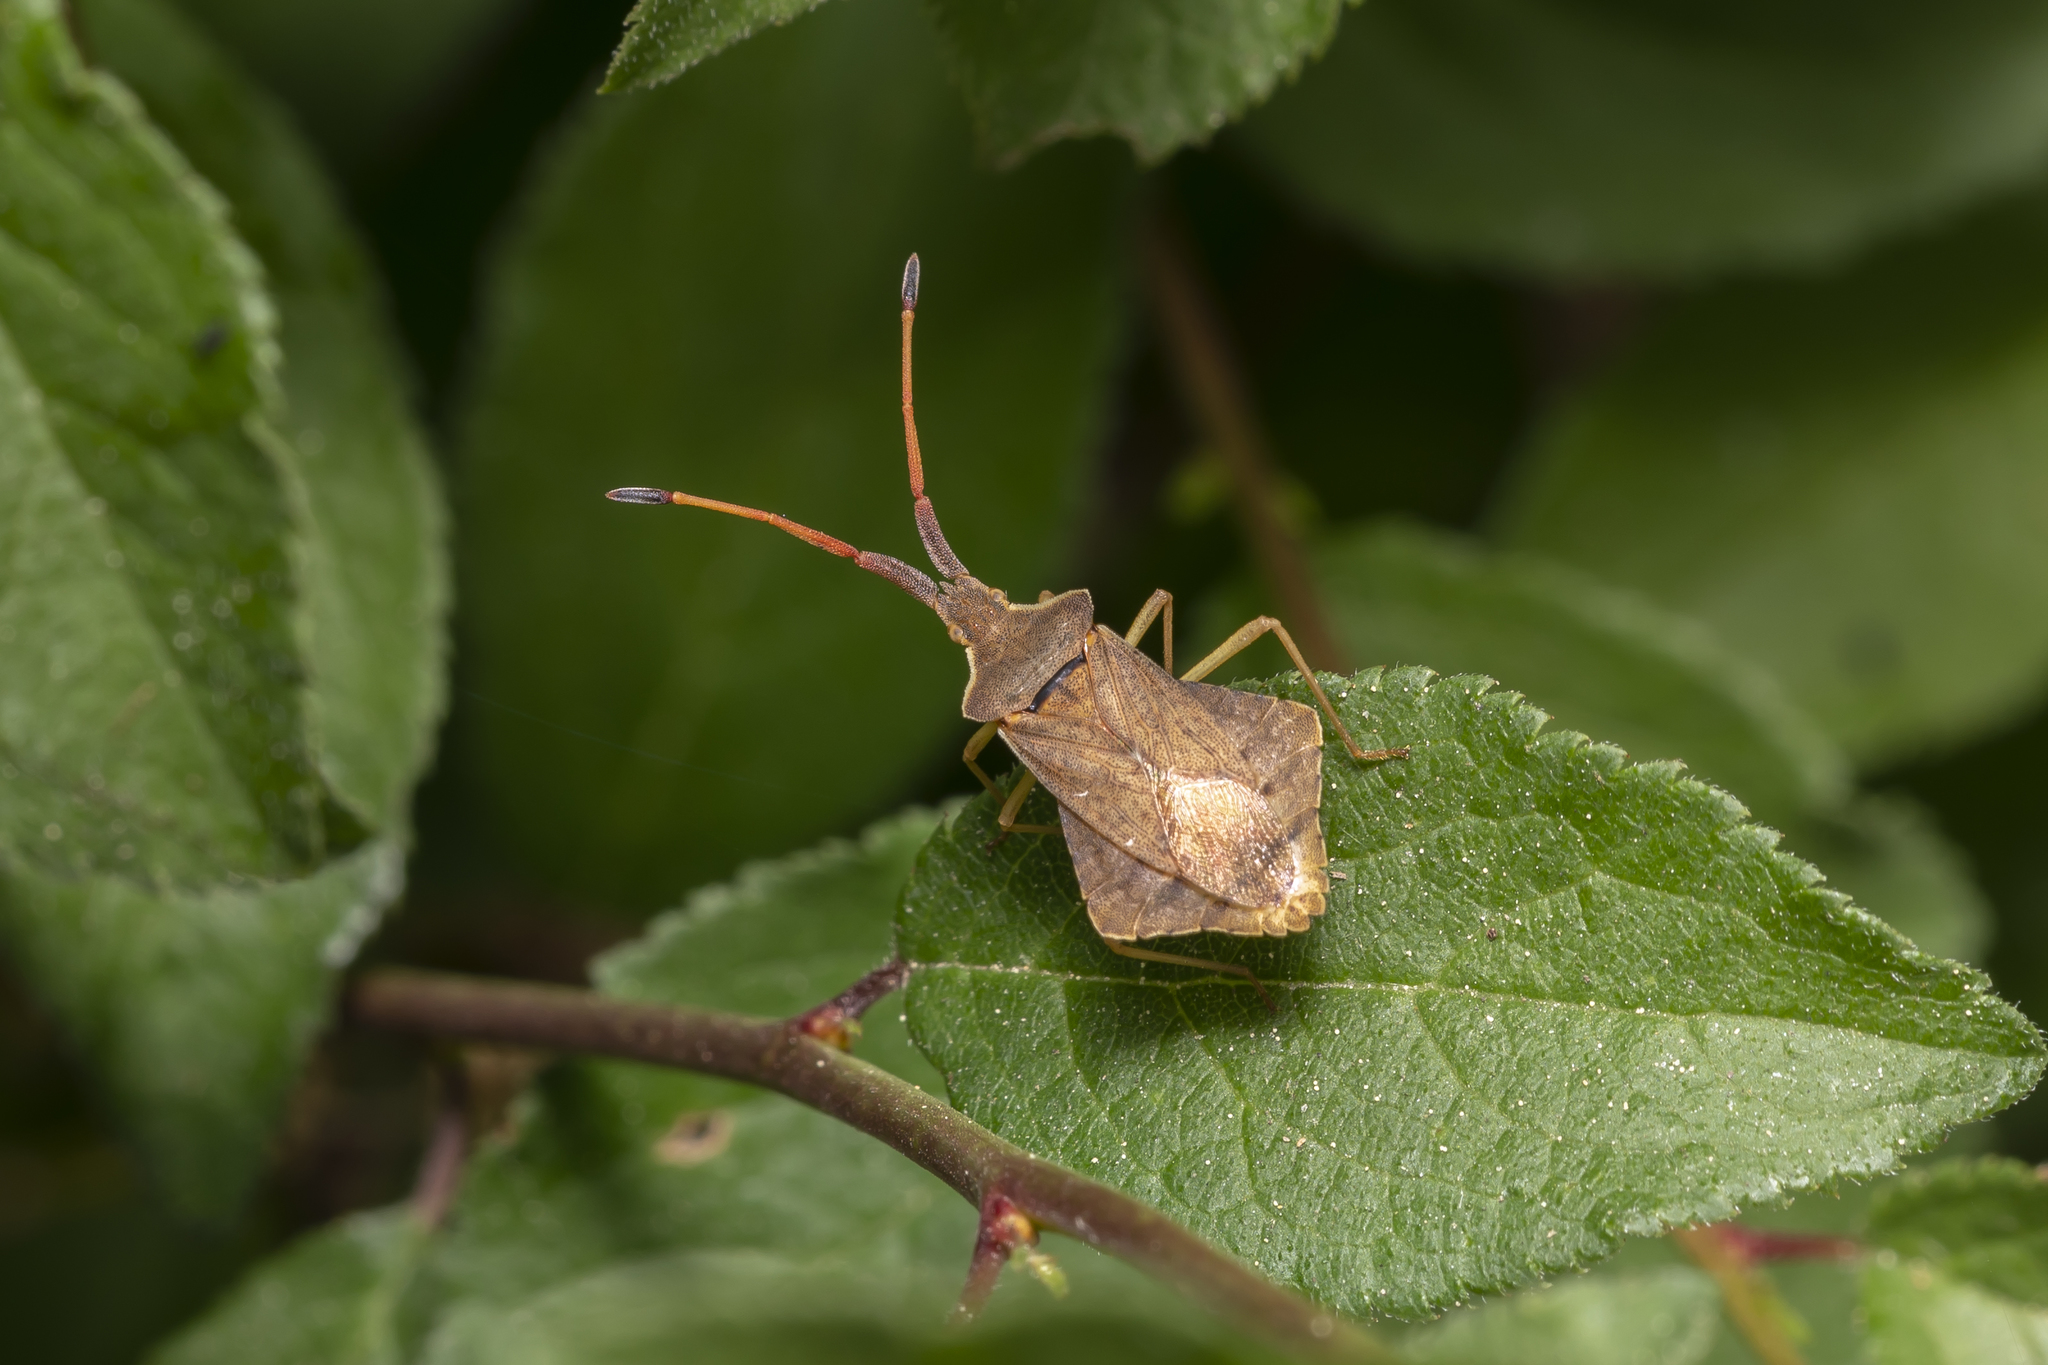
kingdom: Animalia
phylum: Arthropoda
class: Insecta
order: Hemiptera
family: Coreidae
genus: Syromastus
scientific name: Syromastus rhombeus
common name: Rhombic leatherbug
